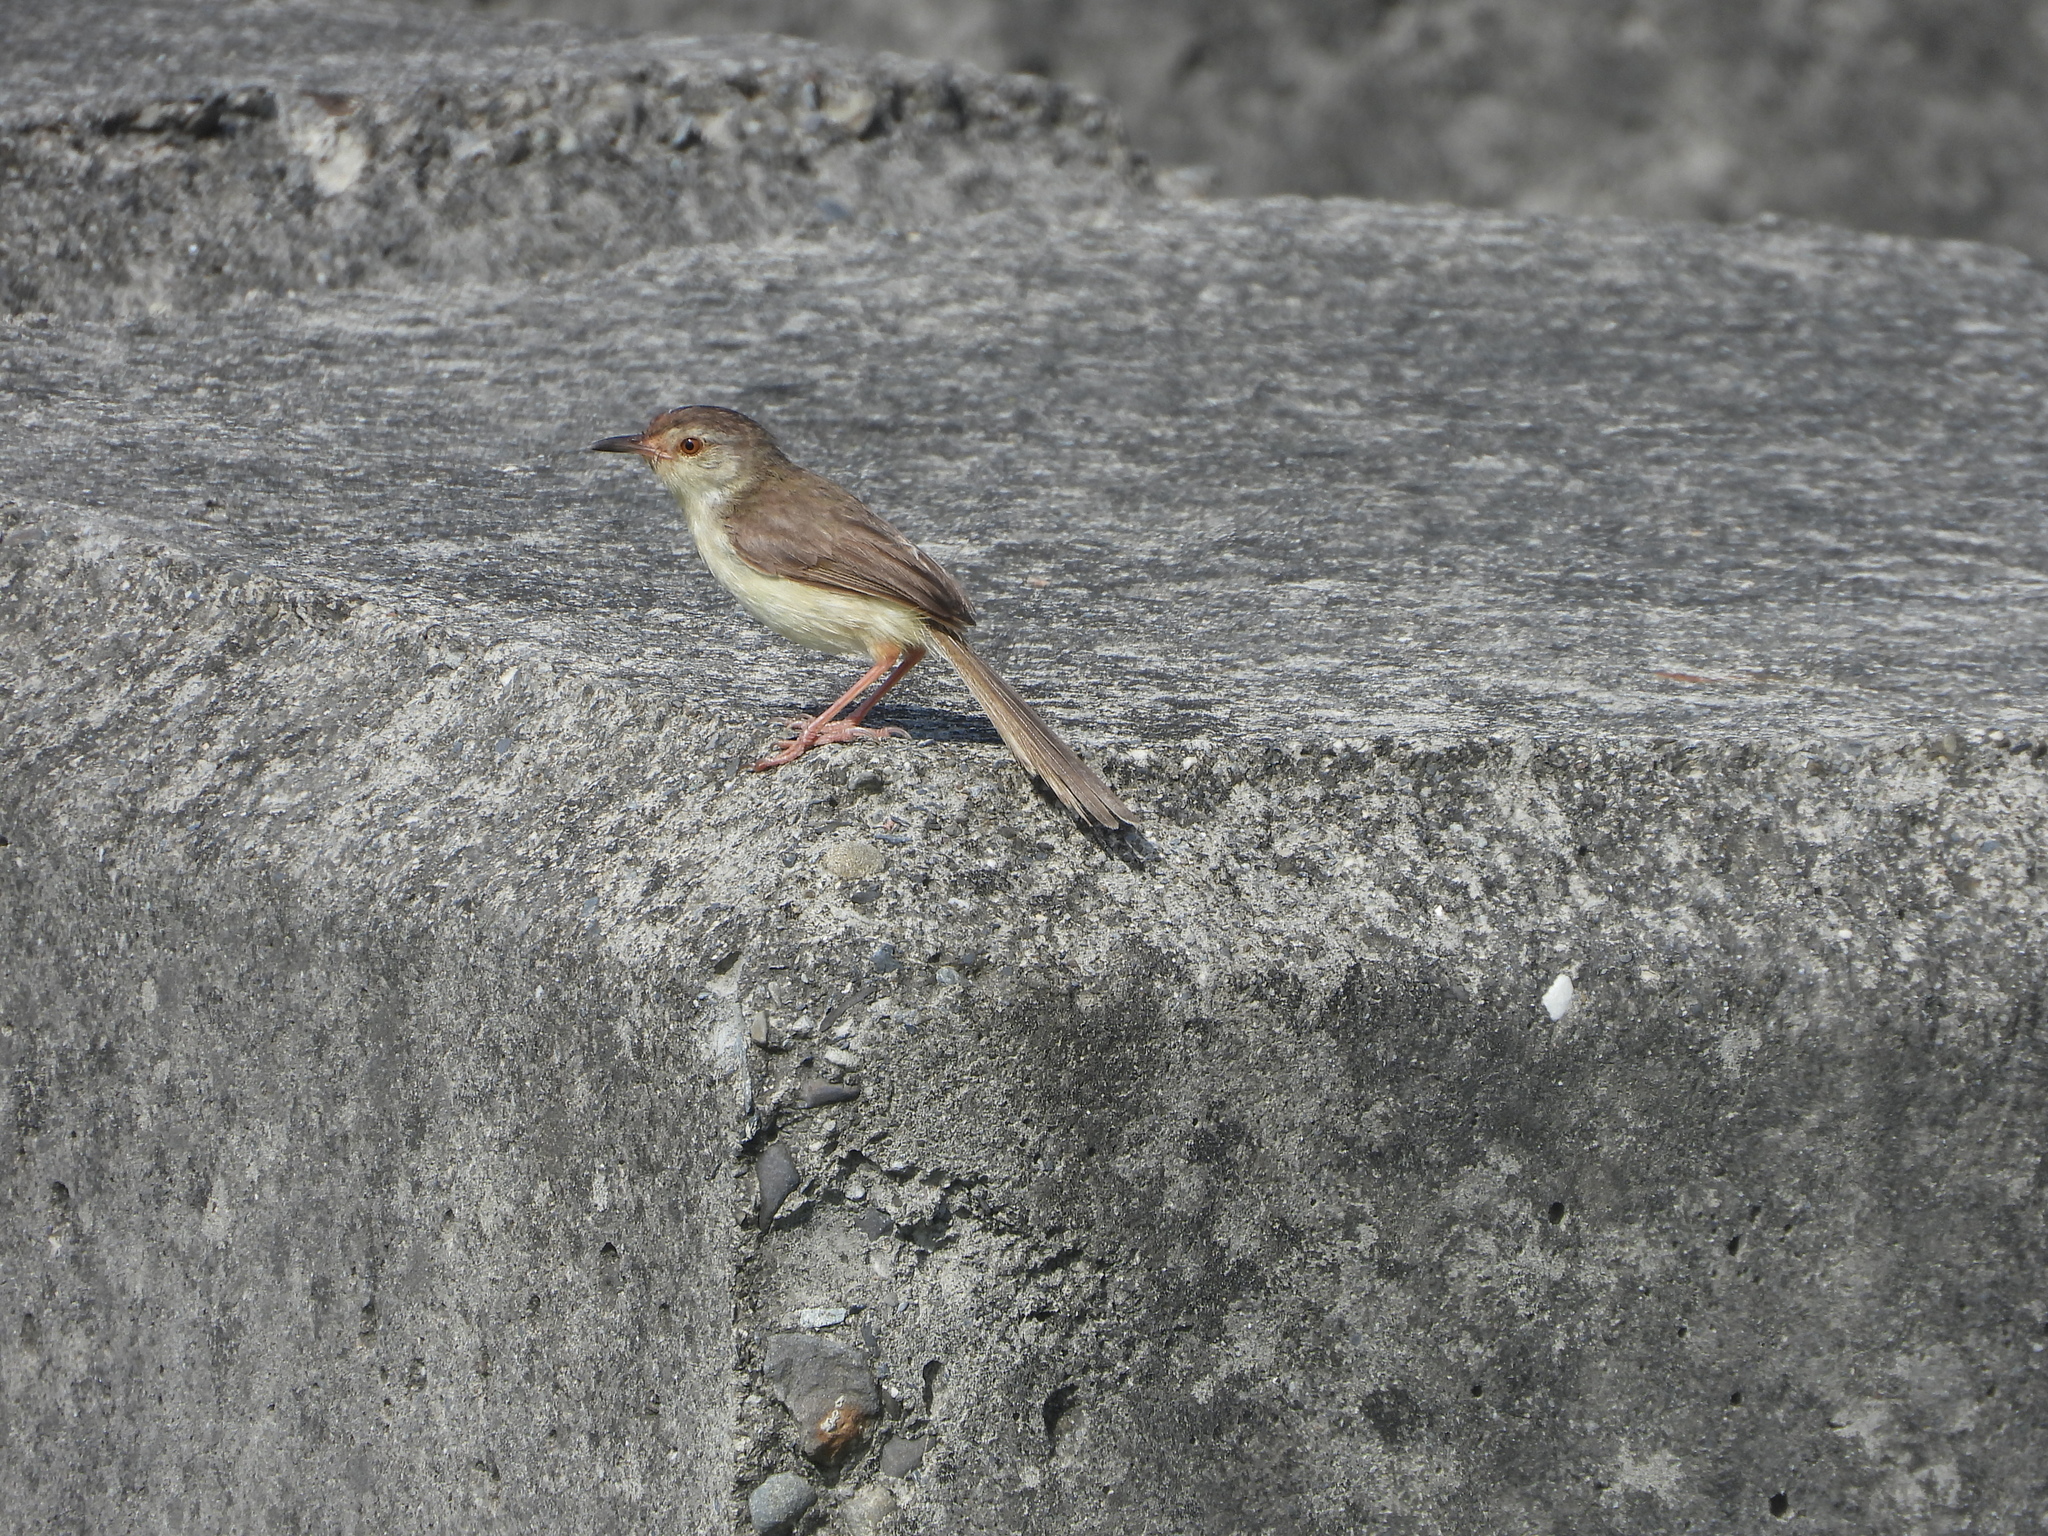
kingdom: Animalia
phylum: Chordata
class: Aves
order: Passeriformes
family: Cisticolidae
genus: Prinia
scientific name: Prinia inornata
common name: Plain prinia
